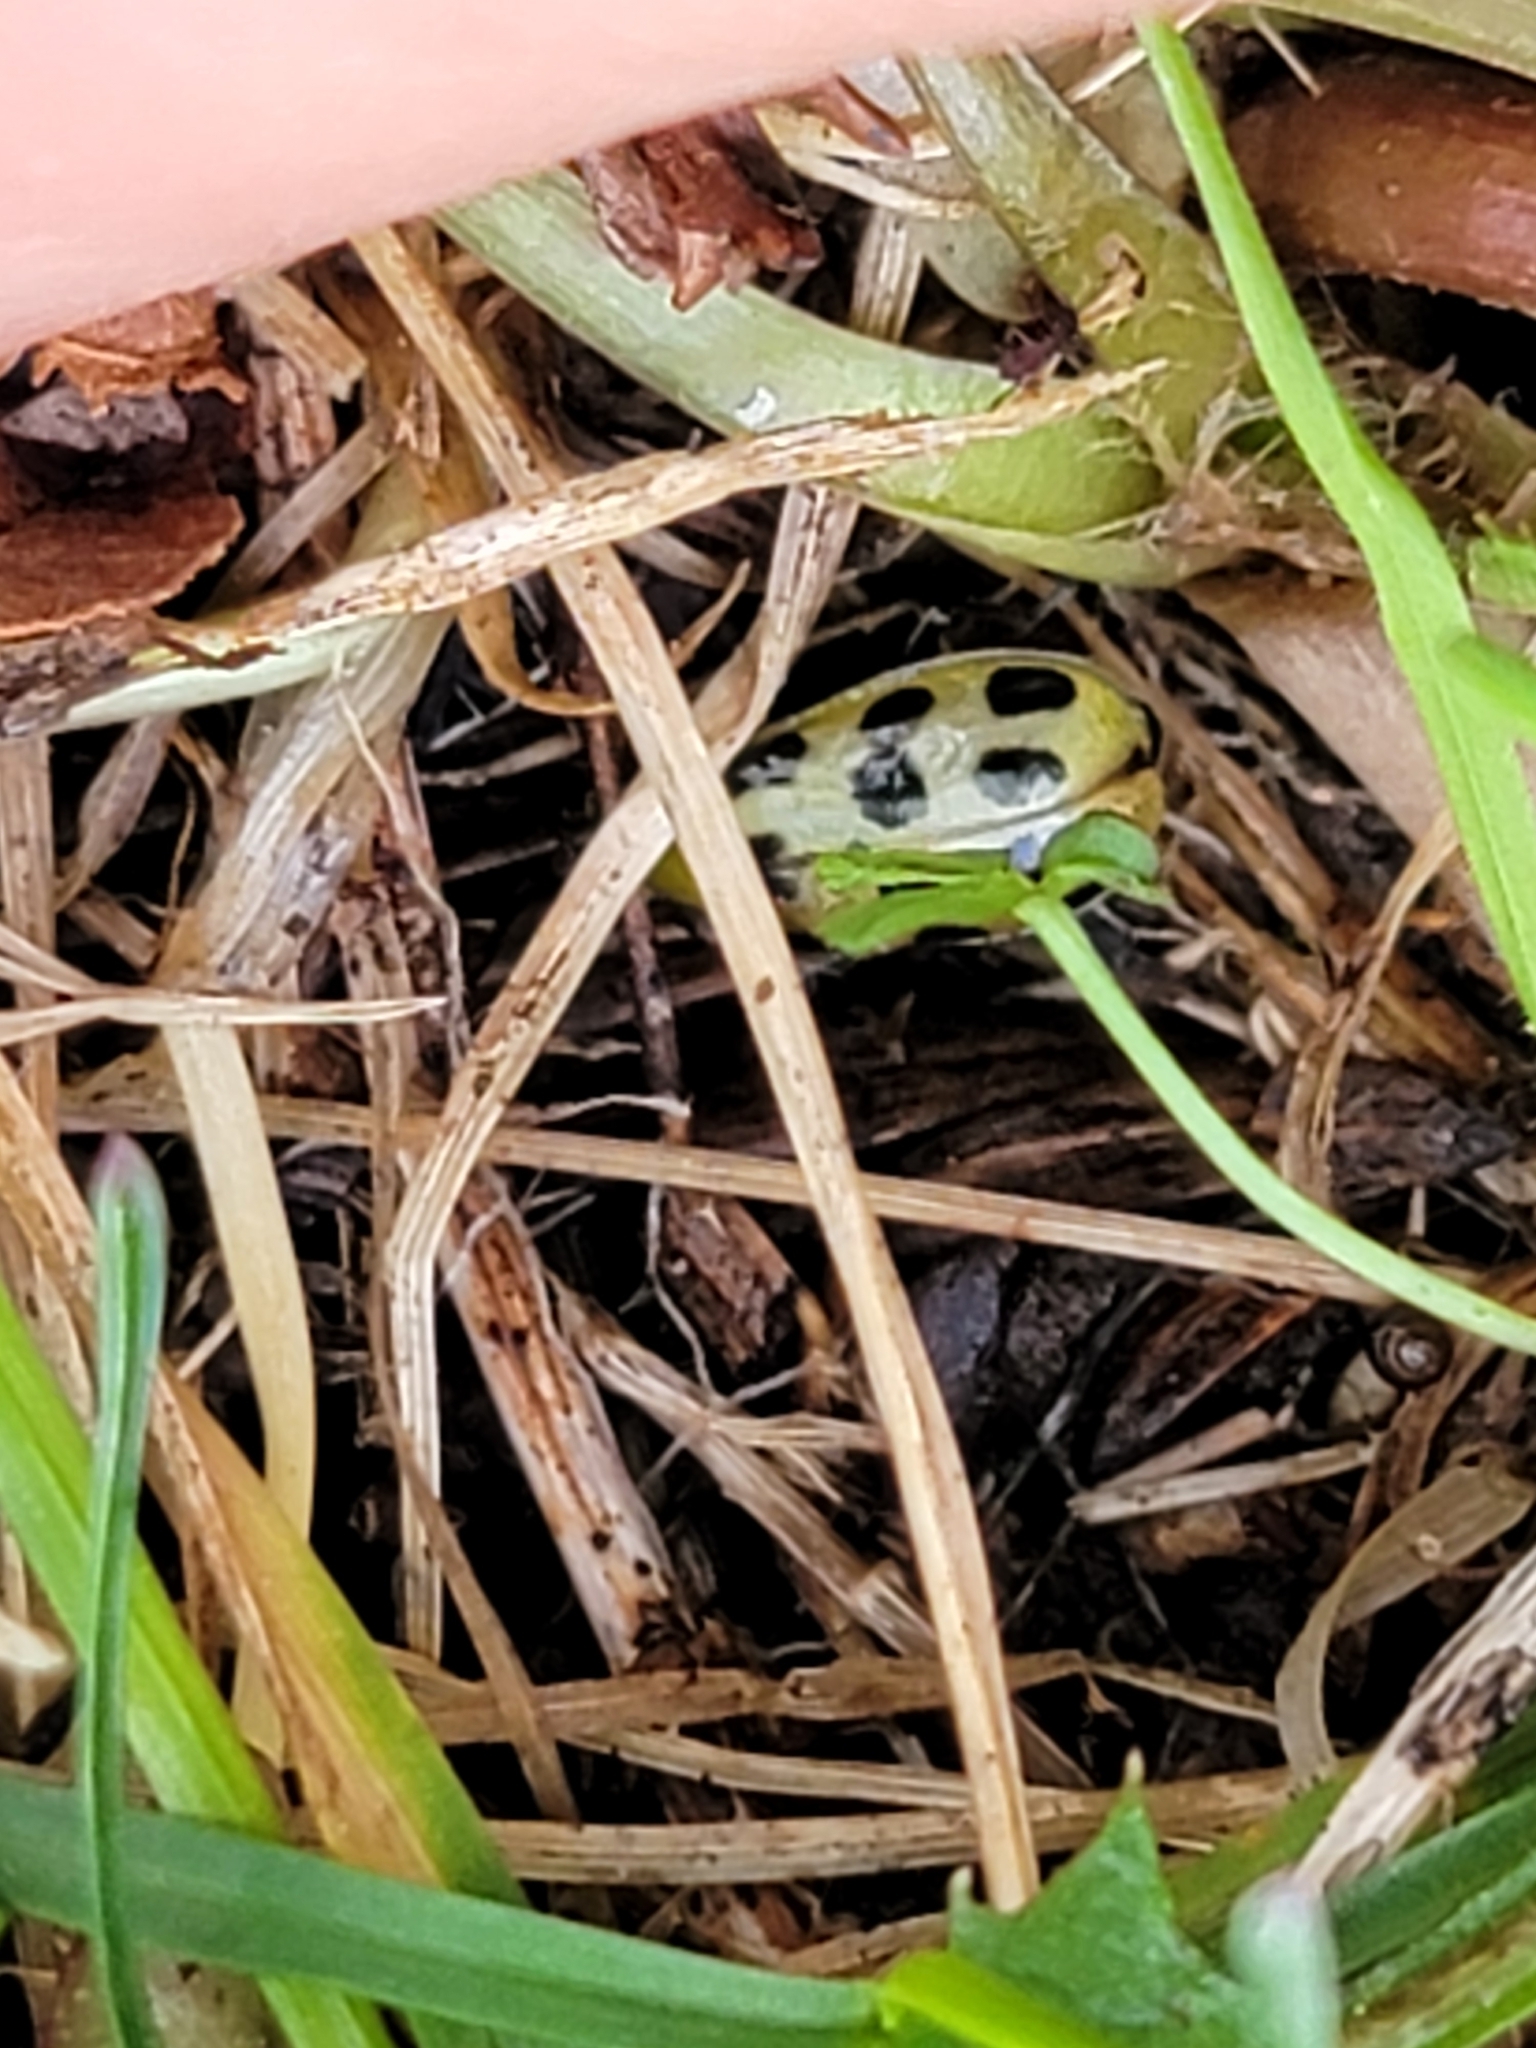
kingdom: Animalia
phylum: Arthropoda
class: Insecta
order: Coleoptera
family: Chrysomelidae
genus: Diabrotica
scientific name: Diabrotica undecimpunctata
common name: Spotted cucumber beetle
